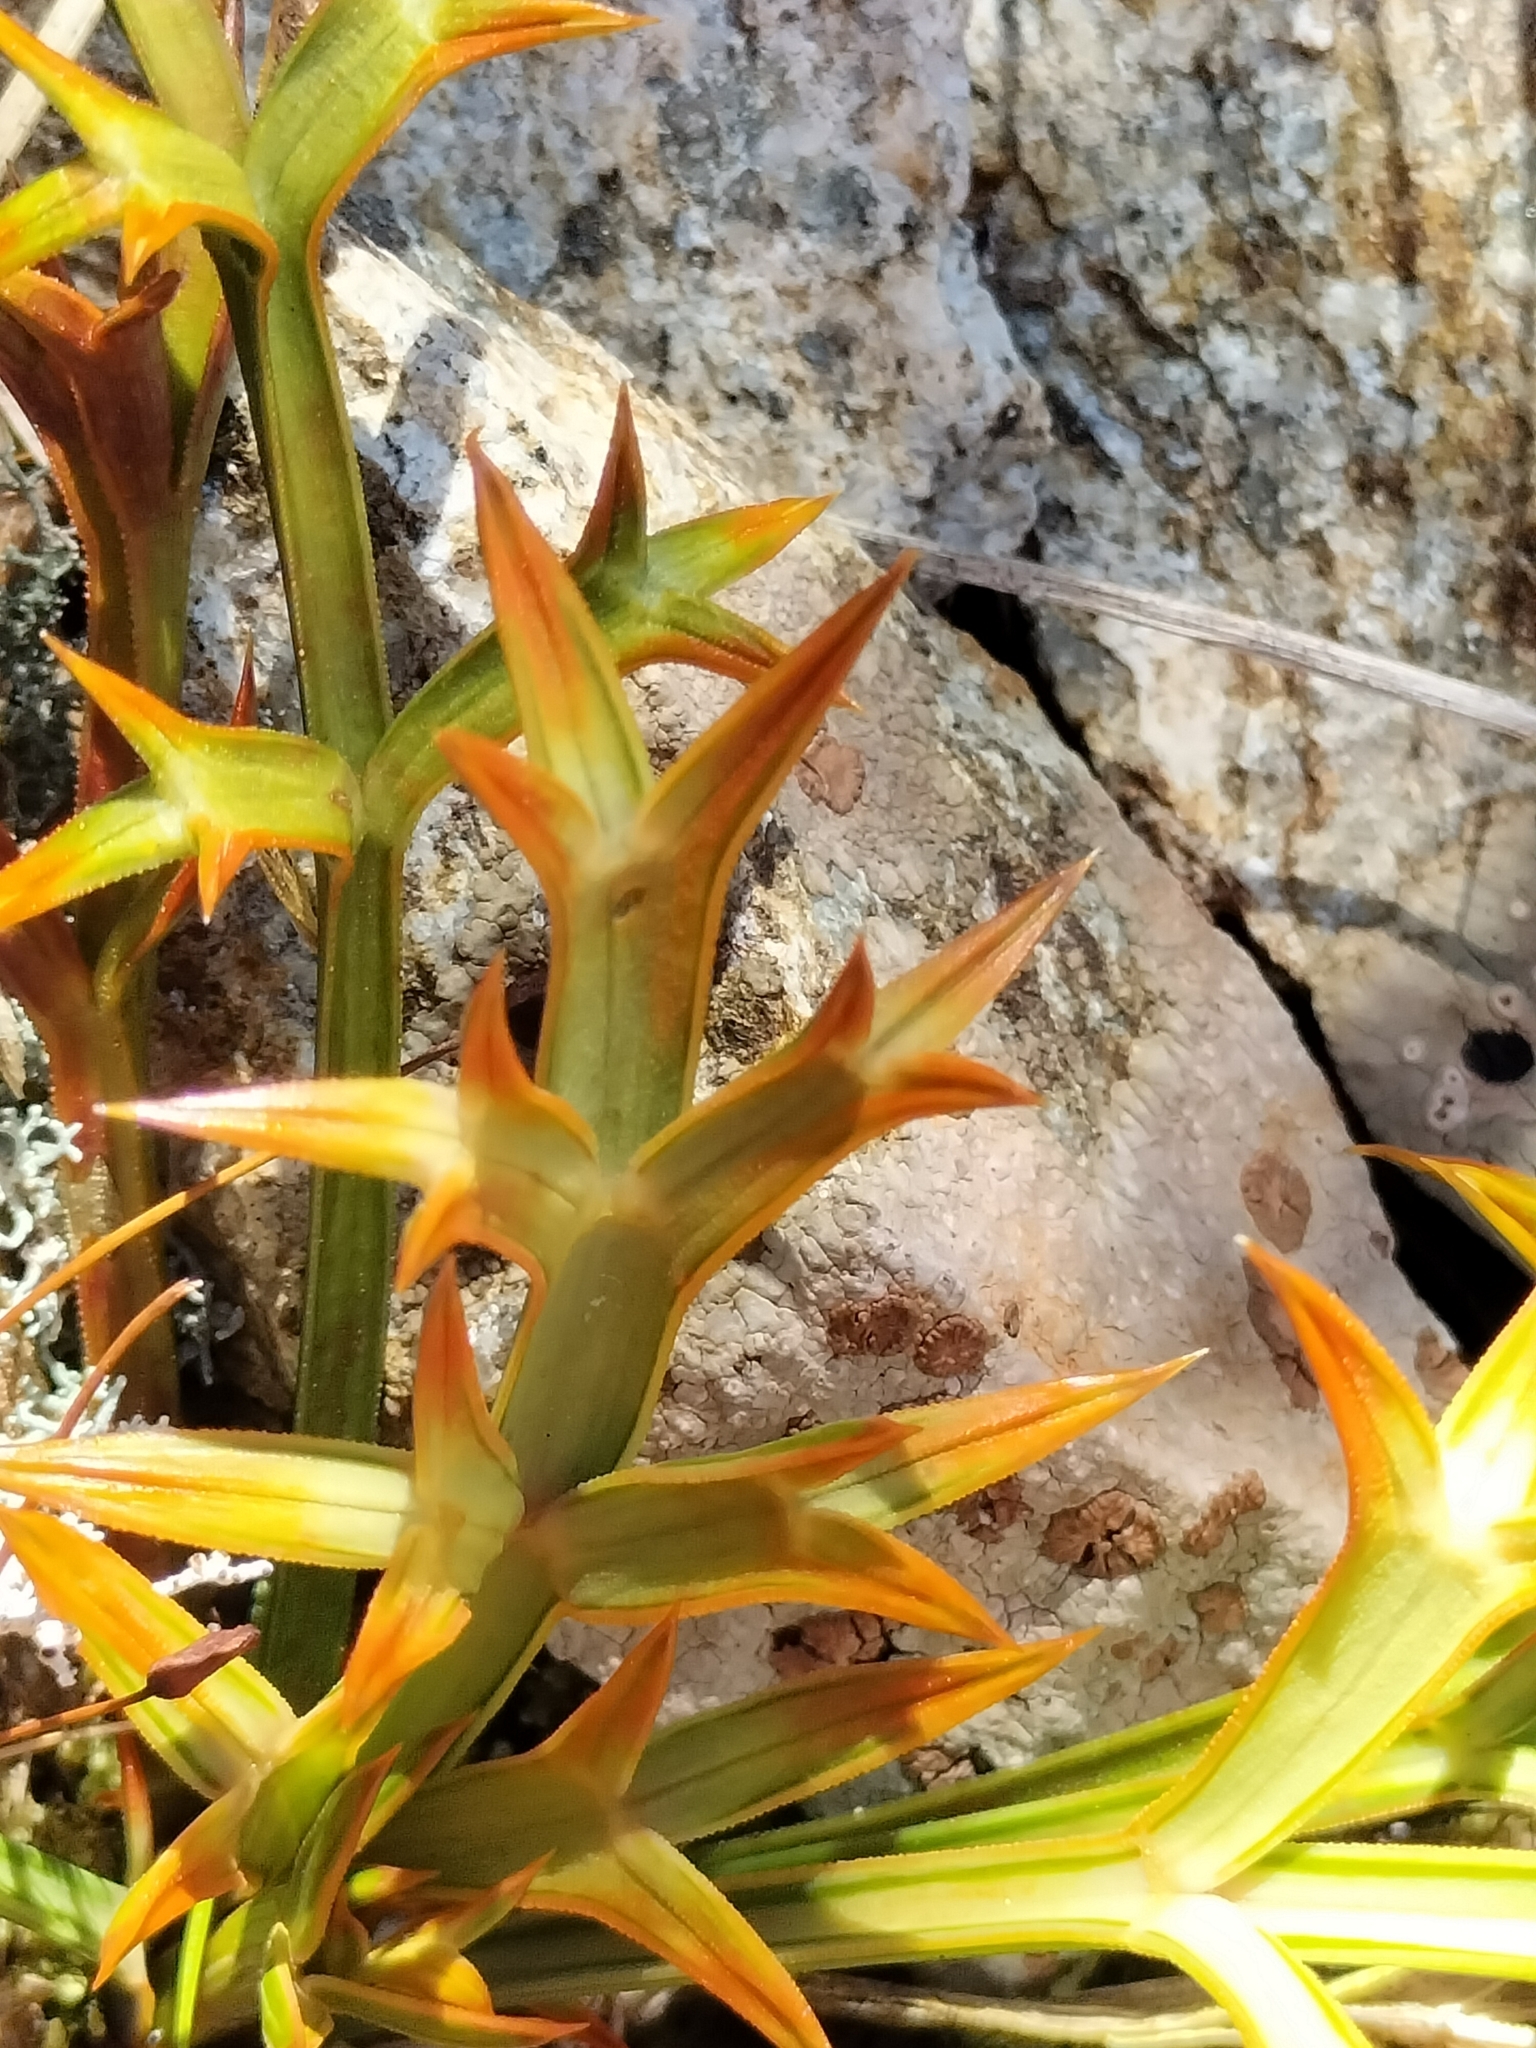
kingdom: Plantae
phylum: Tracheophyta
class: Magnoliopsida
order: Apiales
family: Apiaceae
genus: Aciphylla
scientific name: Aciphylla hookeri
